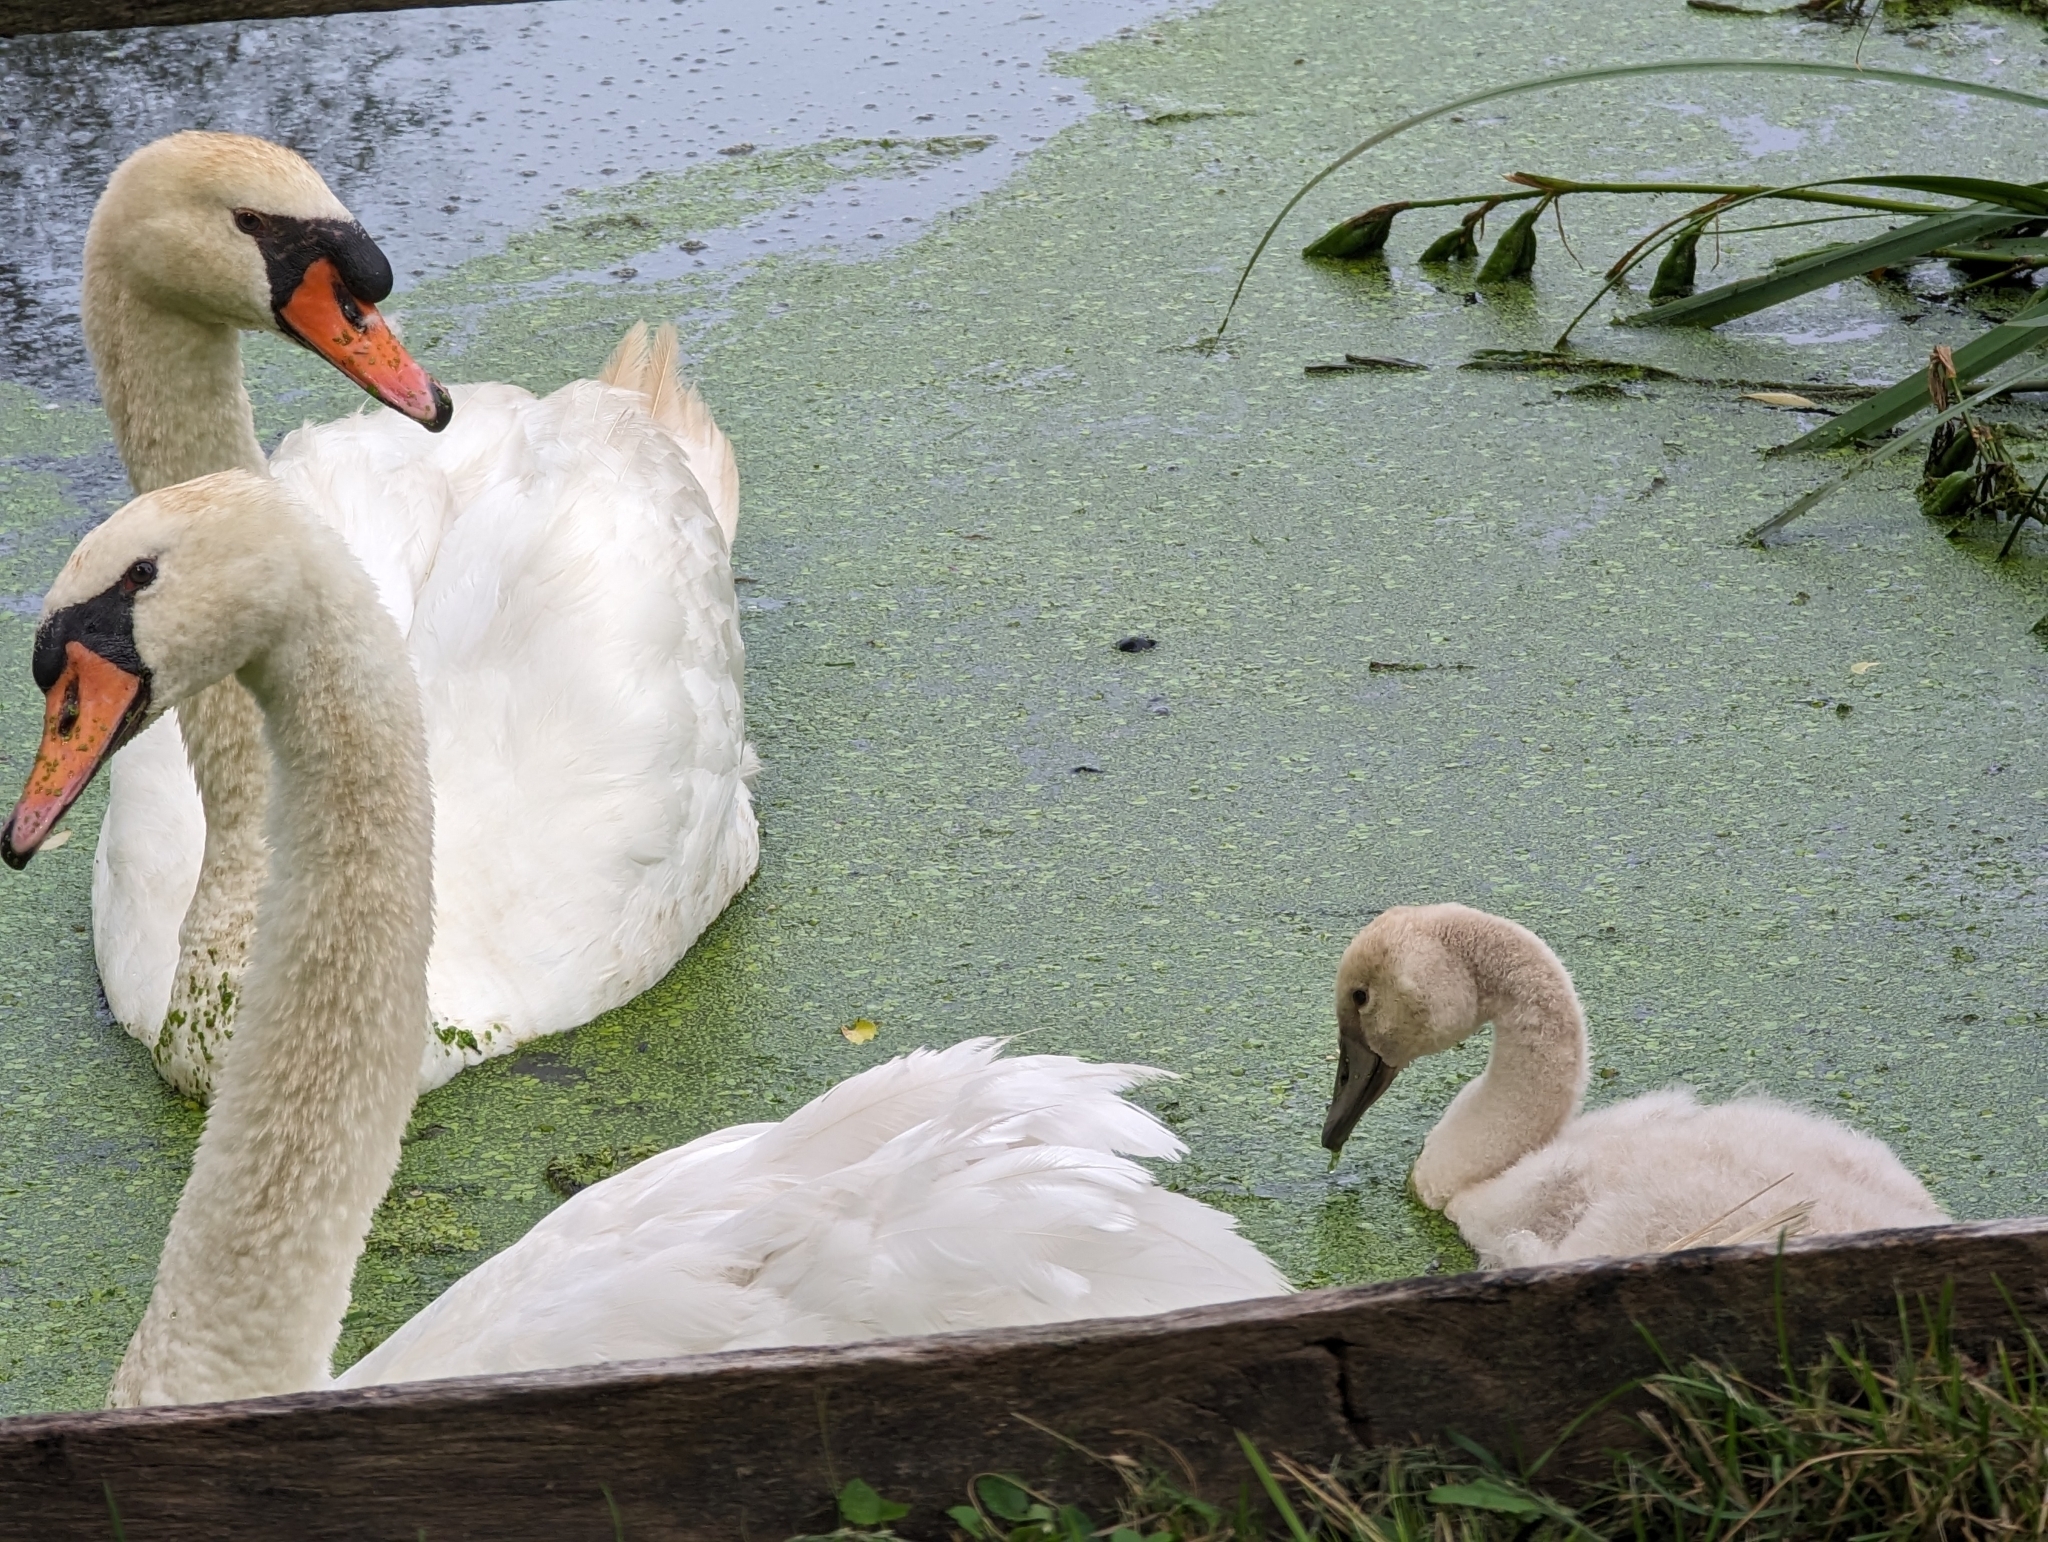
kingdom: Animalia
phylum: Chordata
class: Aves
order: Anseriformes
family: Anatidae
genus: Cygnus
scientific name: Cygnus olor
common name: Mute swan
